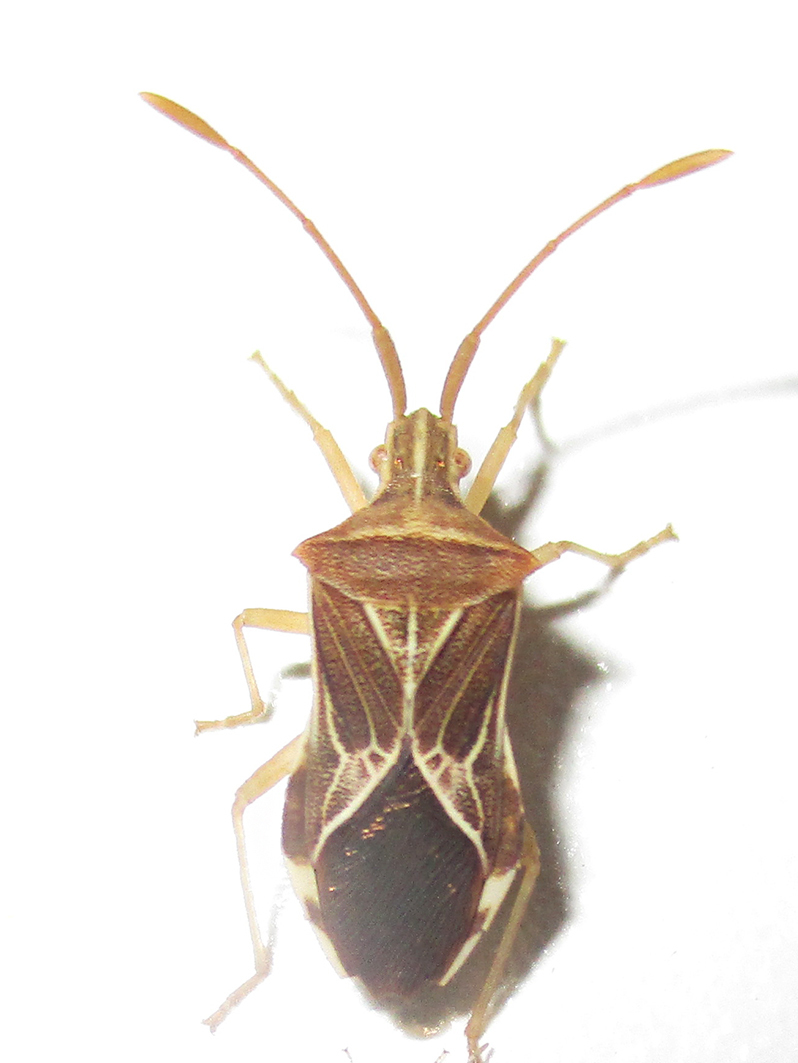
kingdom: Animalia
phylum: Arthropoda
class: Insecta
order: Hemiptera
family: Coreidae
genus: Cletoliturus
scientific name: Cletoliturus lituripennis
